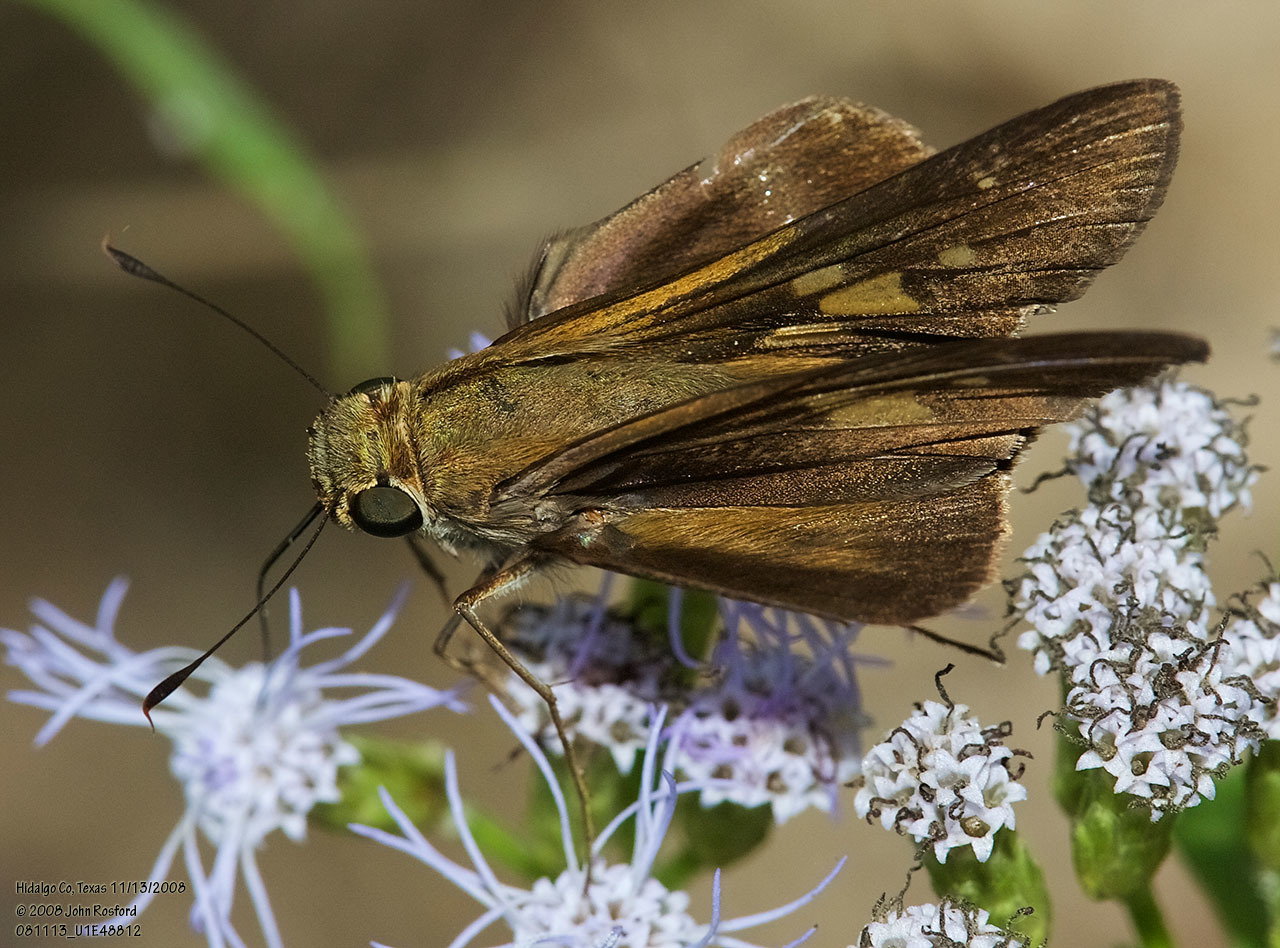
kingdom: Animalia
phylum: Arthropoda
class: Insecta
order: Lepidoptera
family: Hesperiidae
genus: Panoquina
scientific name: Panoquina fusina
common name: Evans' skipper
